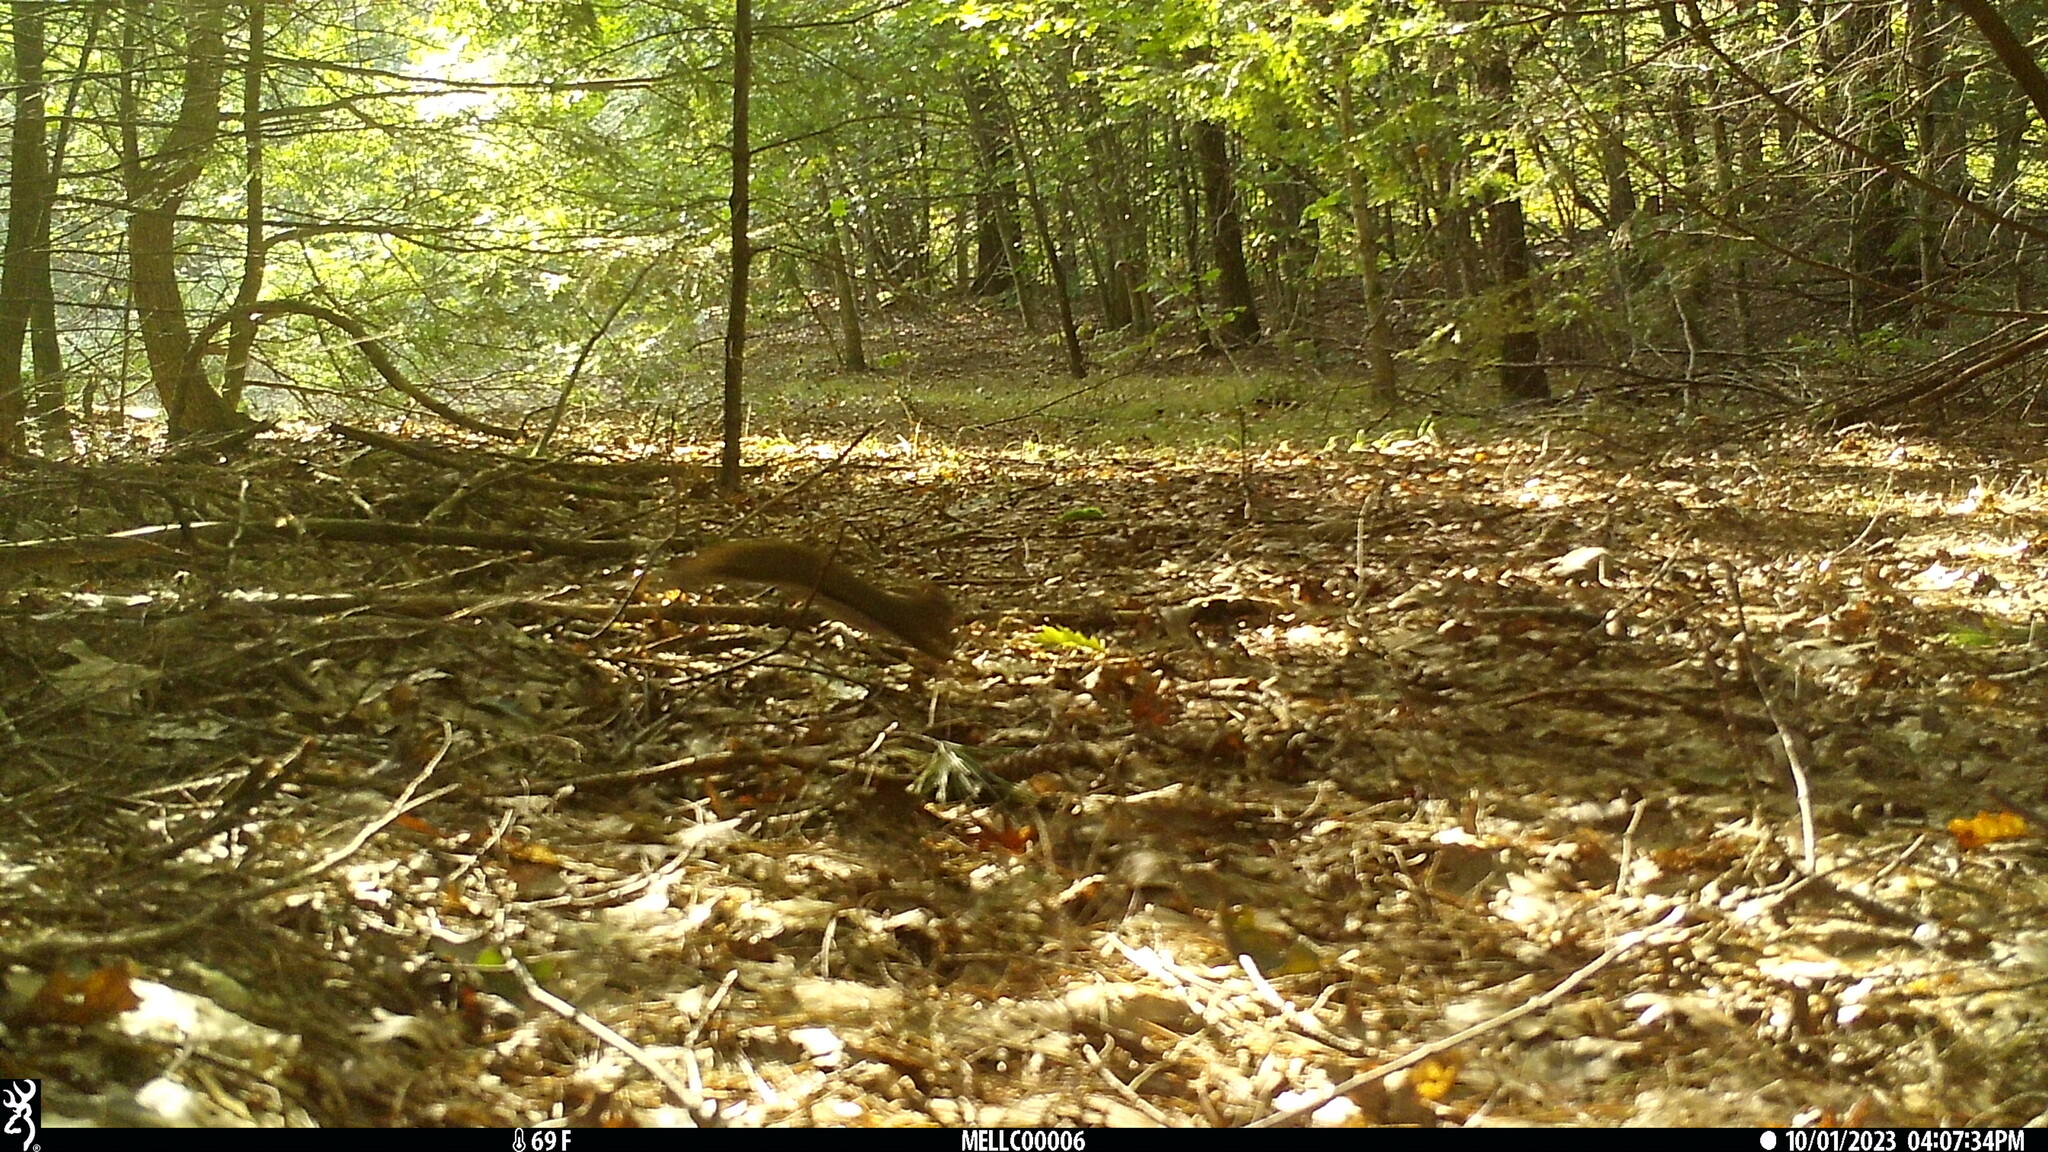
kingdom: Animalia
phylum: Chordata
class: Mammalia
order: Rodentia
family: Sciuridae
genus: Tamiasciurus
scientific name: Tamiasciurus hudsonicus
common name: Red squirrel
